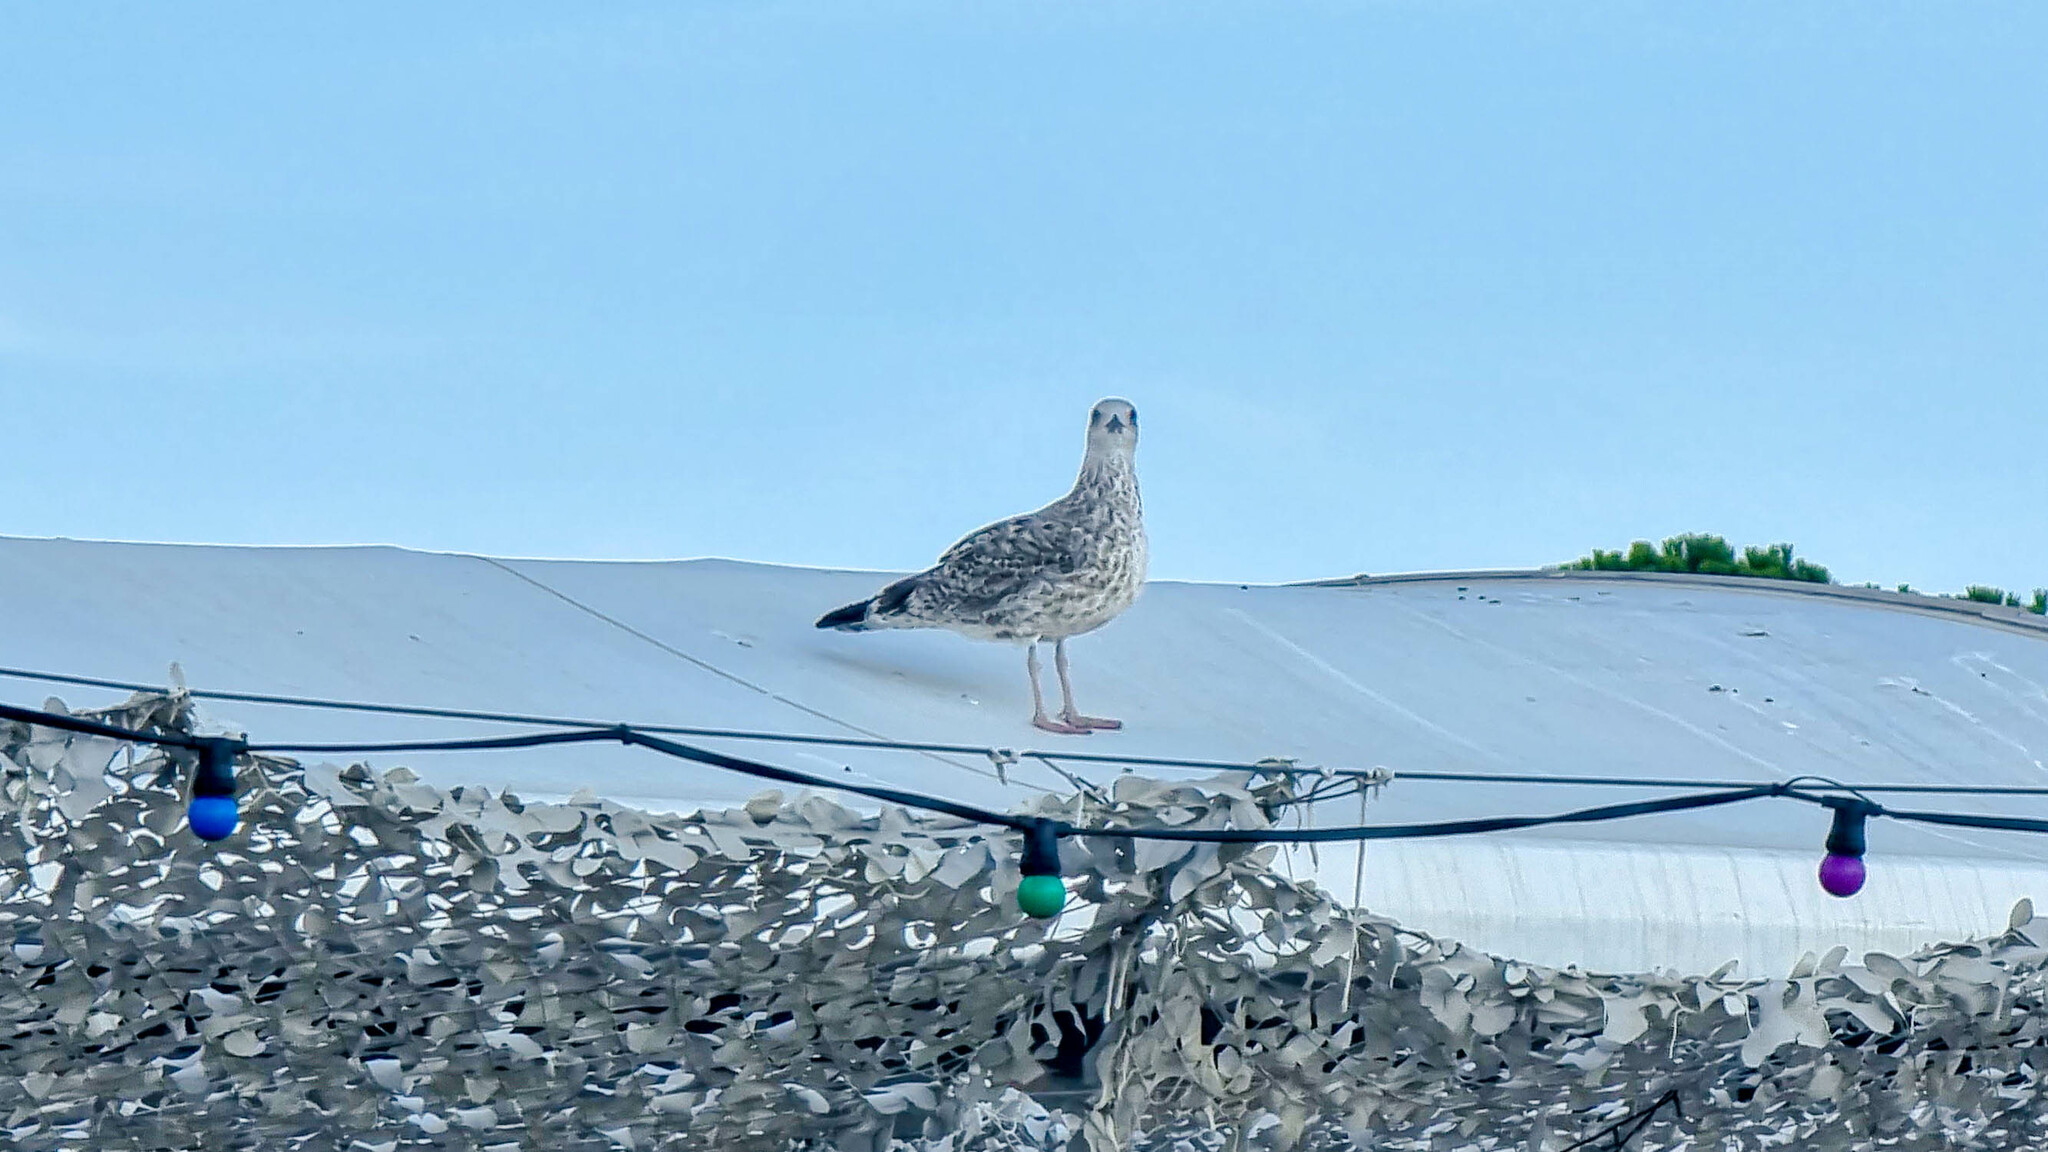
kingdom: Animalia
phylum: Chordata
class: Aves
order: Charadriiformes
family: Laridae
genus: Larus
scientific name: Larus michahellis
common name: Yellow-legged gull
